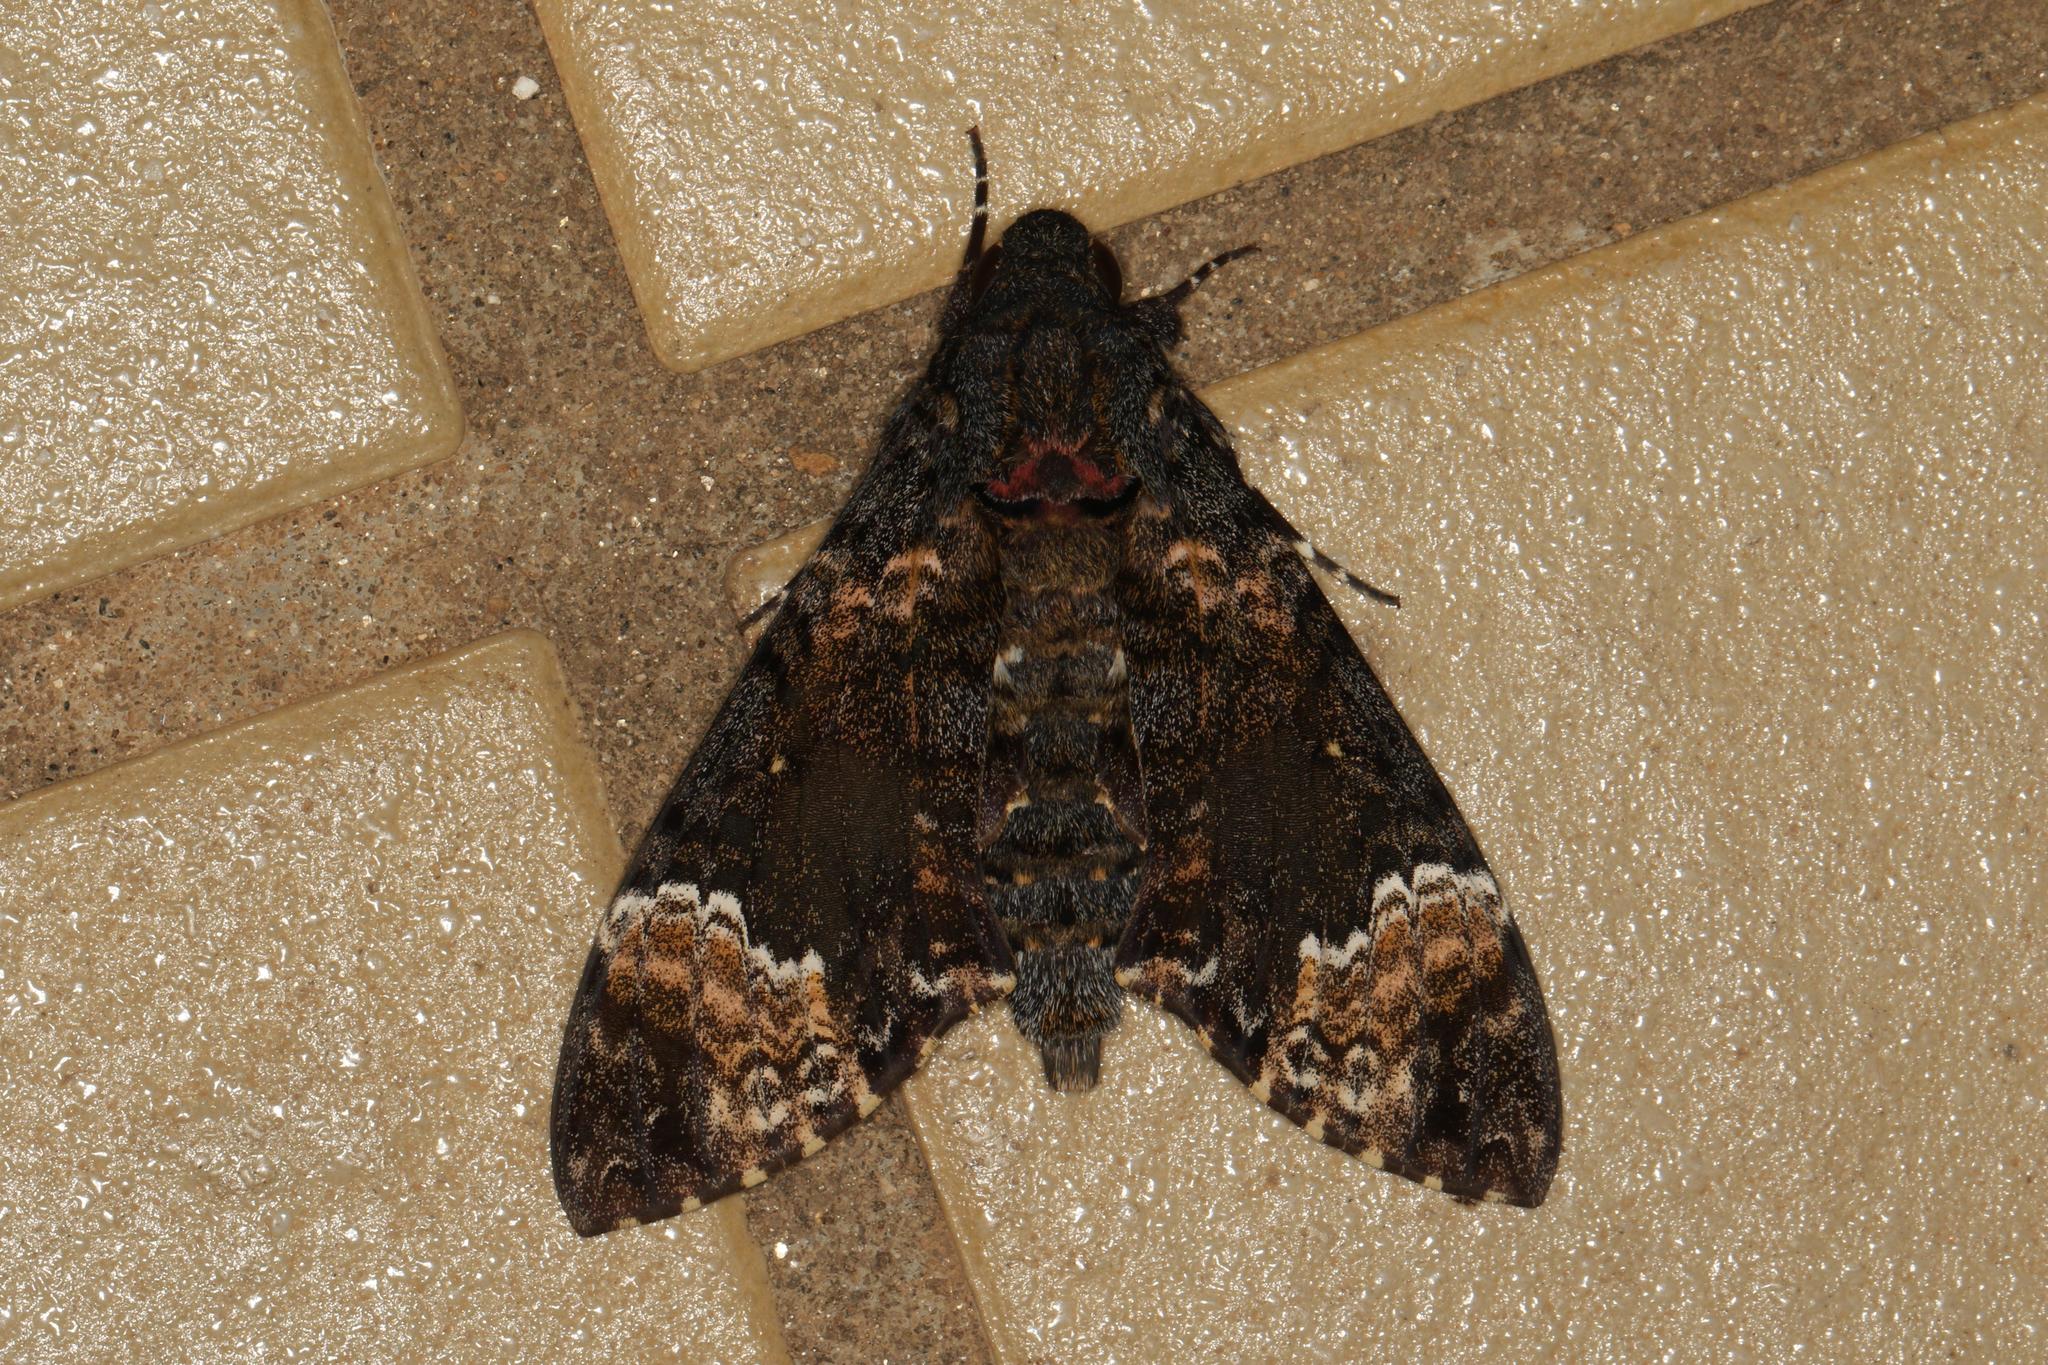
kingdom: Animalia
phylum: Arthropoda
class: Insecta
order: Lepidoptera
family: Sphingidae
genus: Coelonia
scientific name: Coelonia fulvinotata
